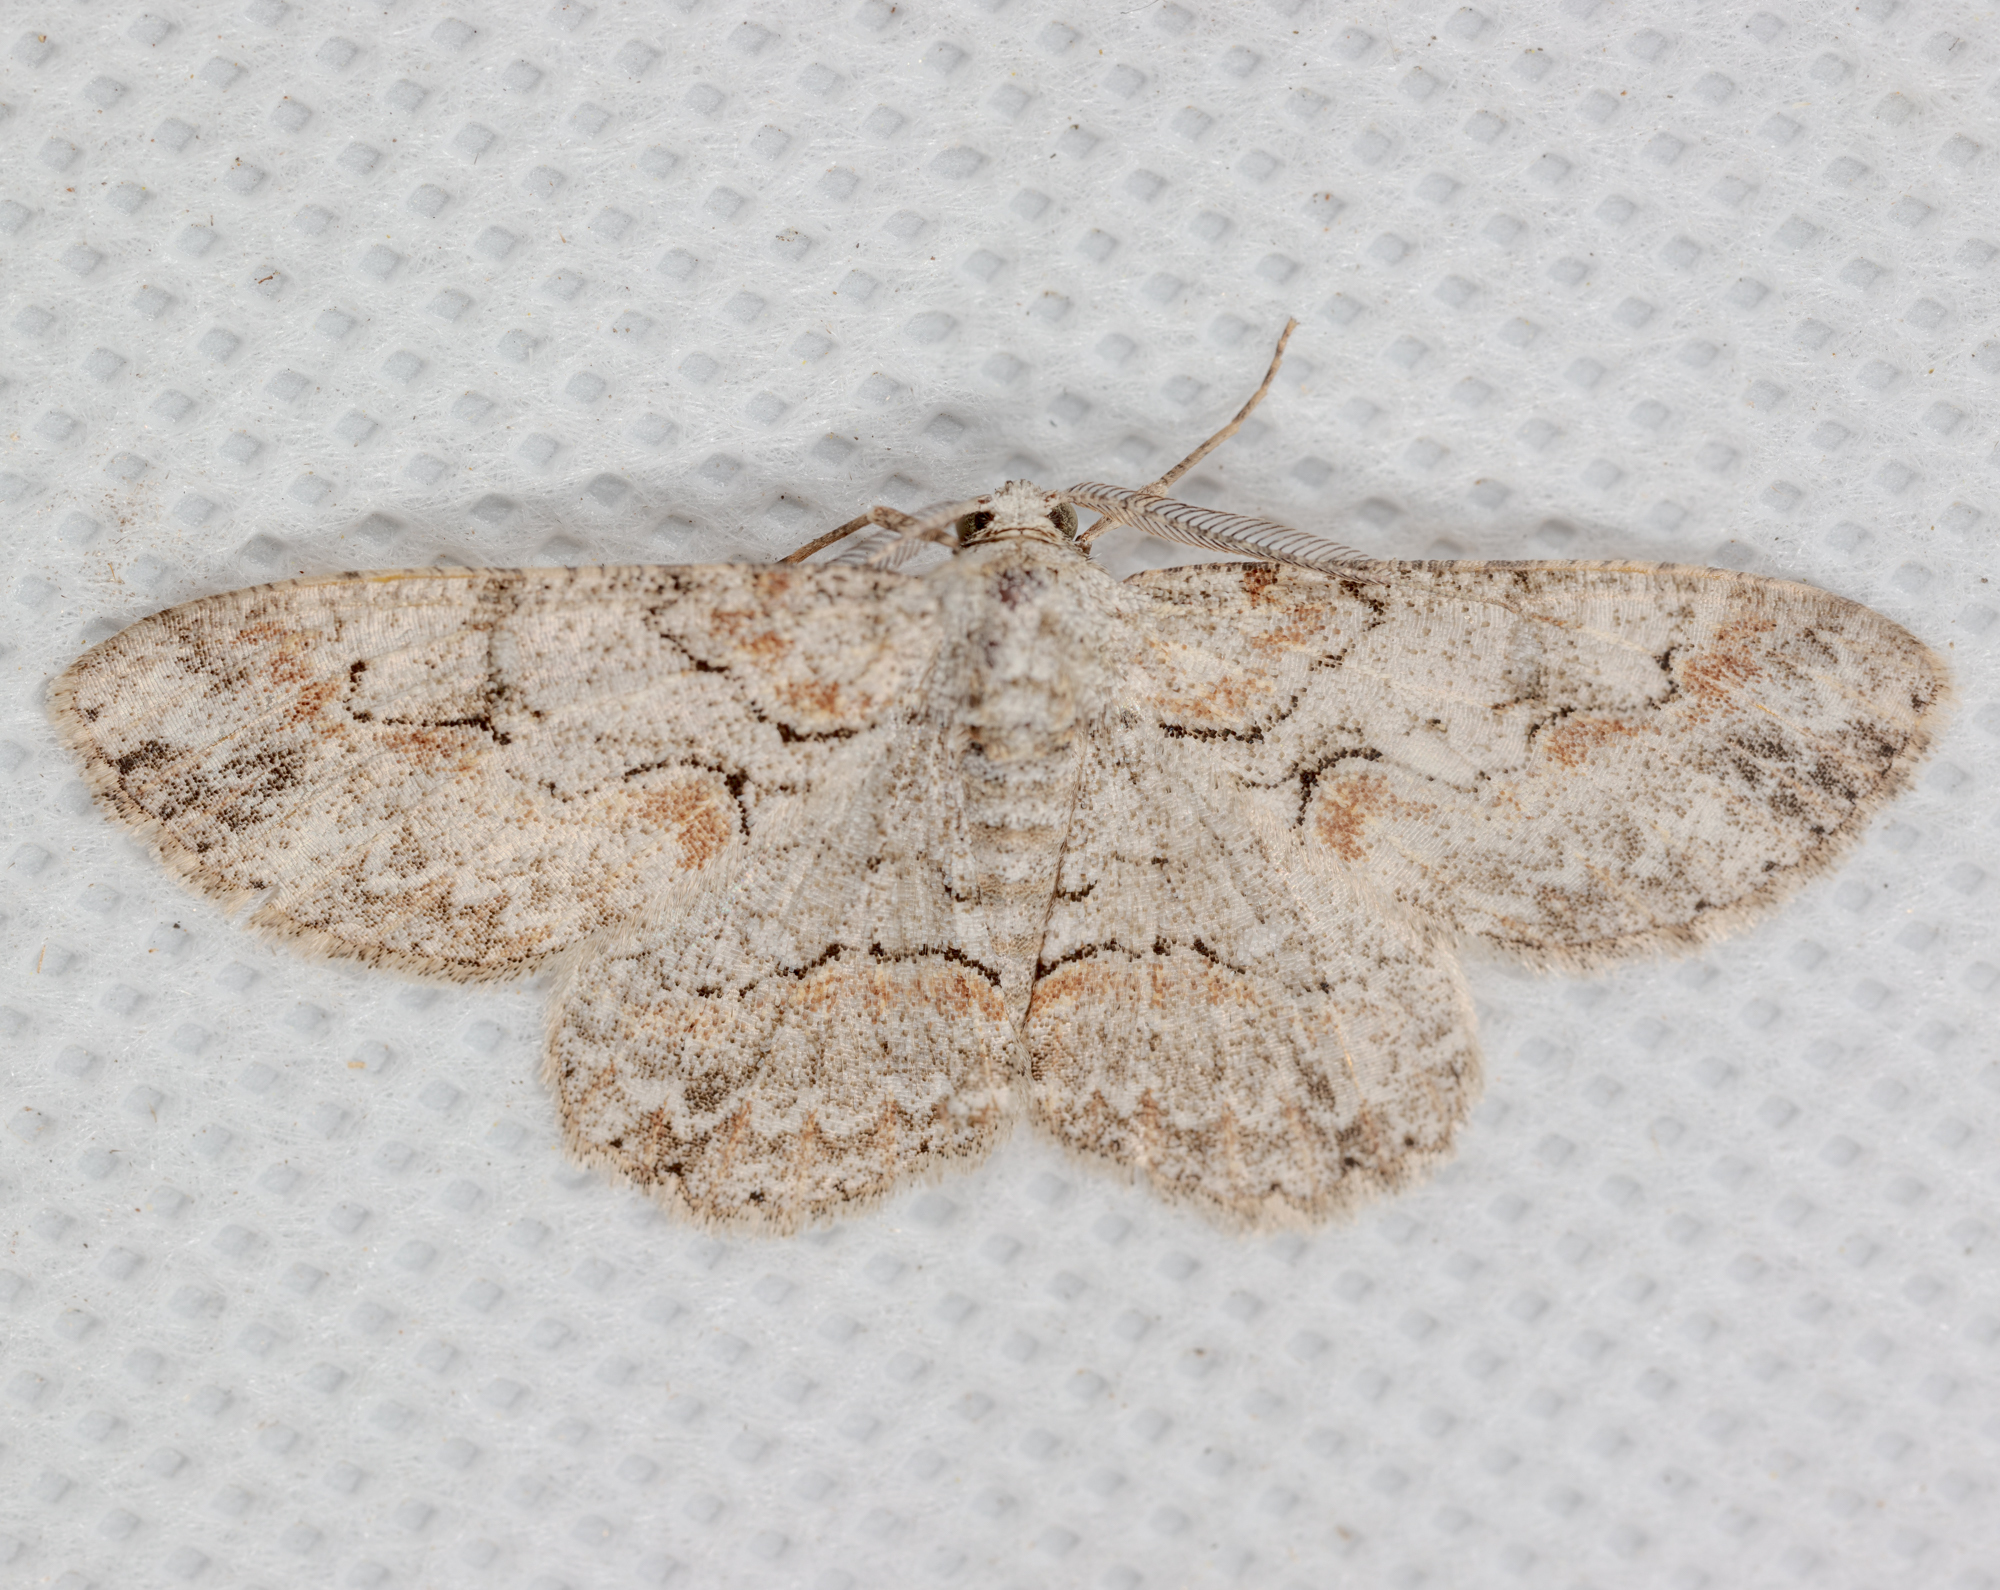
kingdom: Animalia
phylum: Arthropoda
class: Insecta
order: Lepidoptera
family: Geometridae
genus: Iridopsis
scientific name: Iridopsis defectaria
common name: Brown-shaded gray
